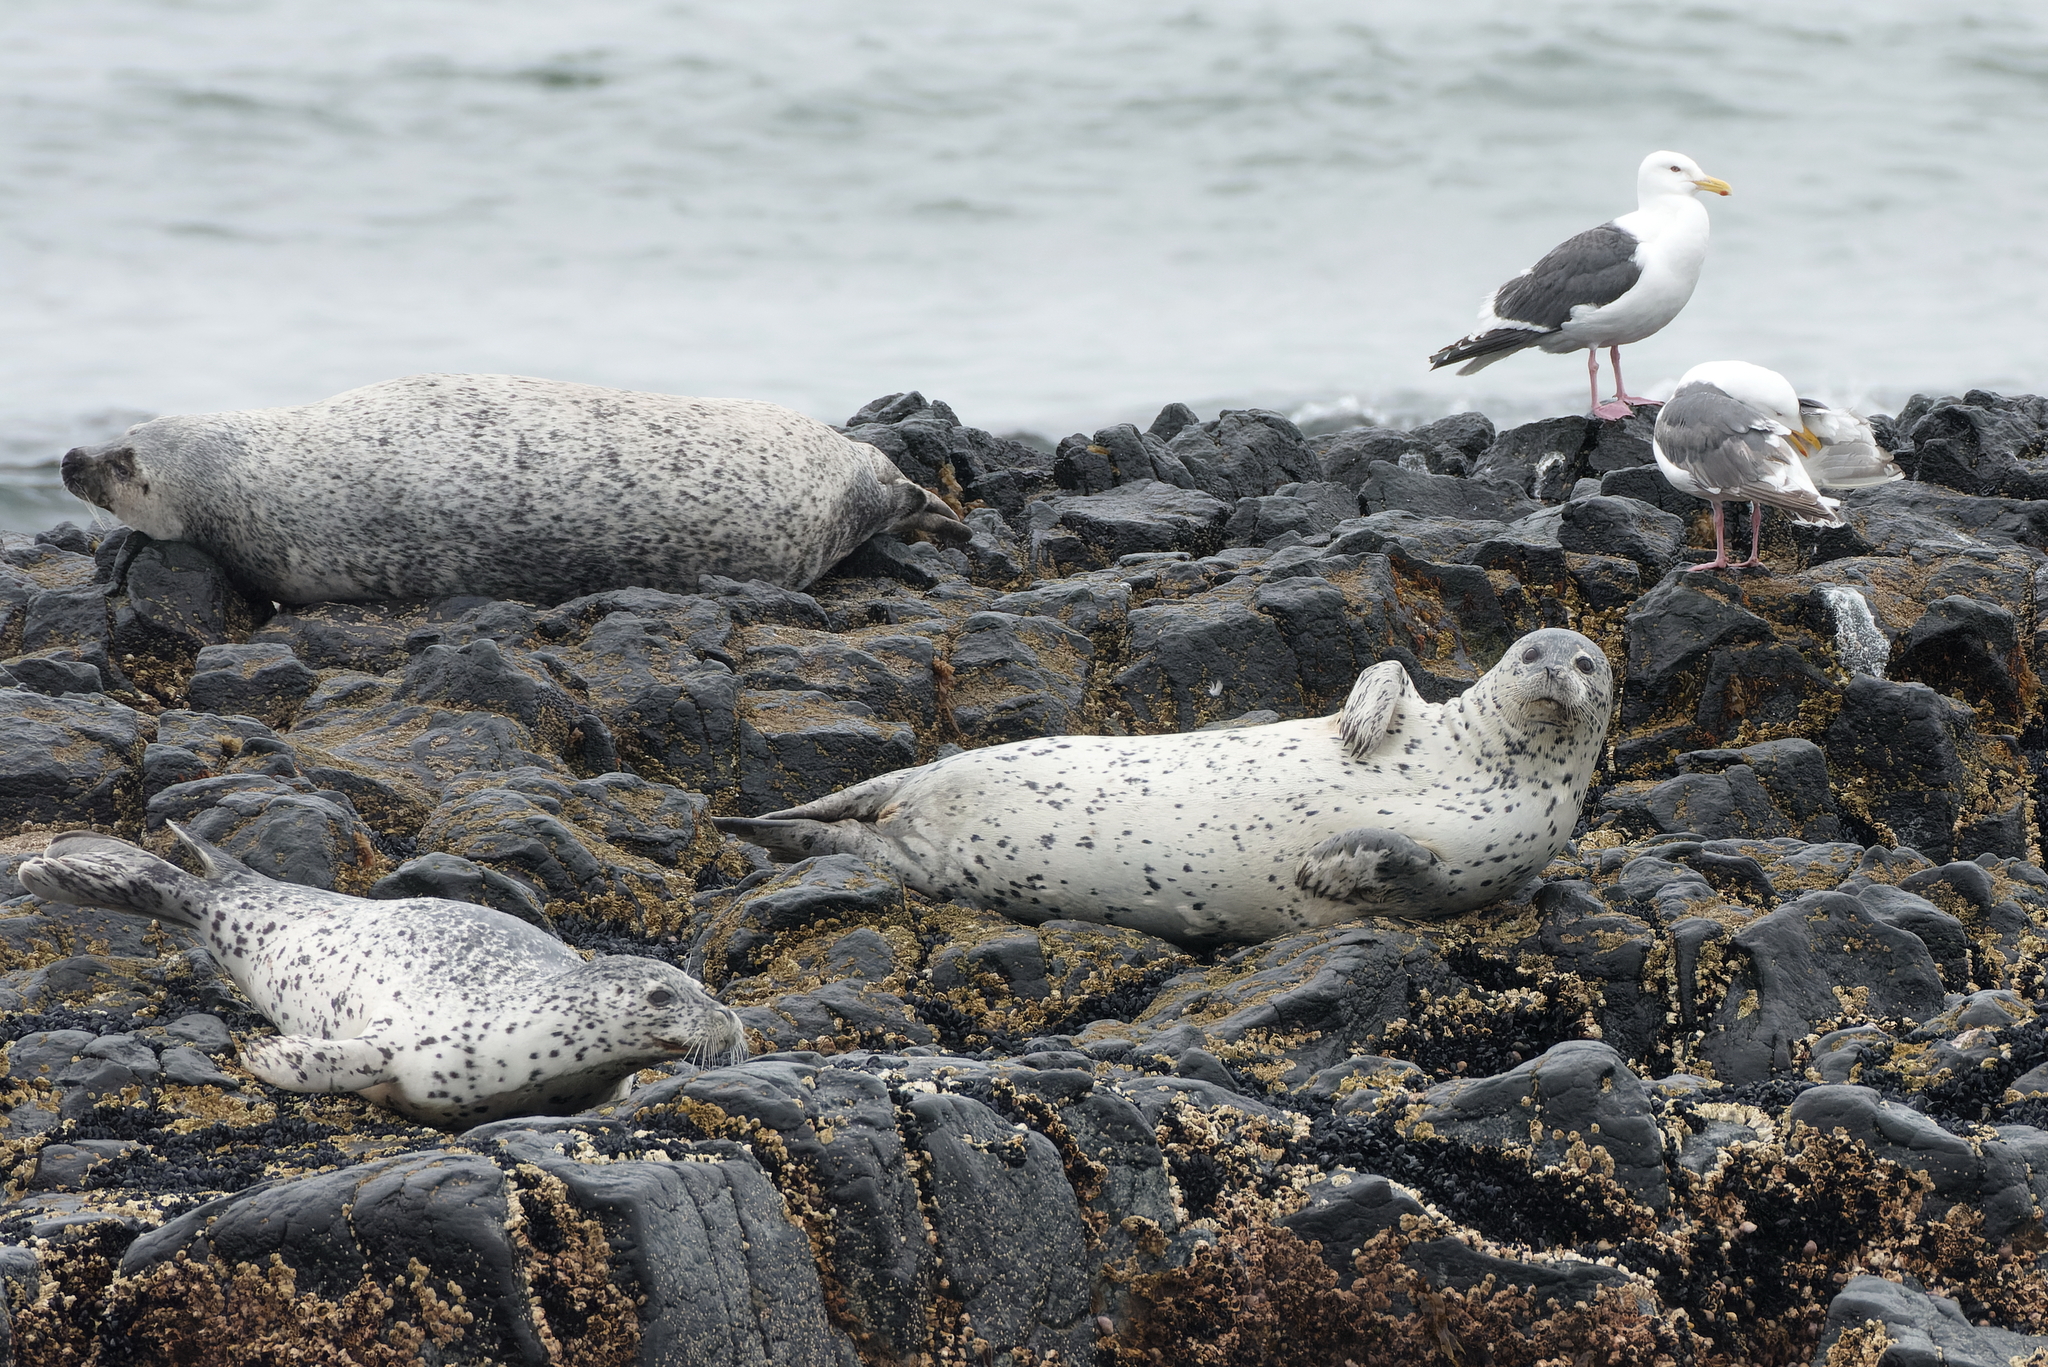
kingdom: Animalia
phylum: Chordata
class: Mammalia
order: Carnivora
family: Phocidae
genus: Phoca
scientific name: Phoca largha
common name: Spotted seal
